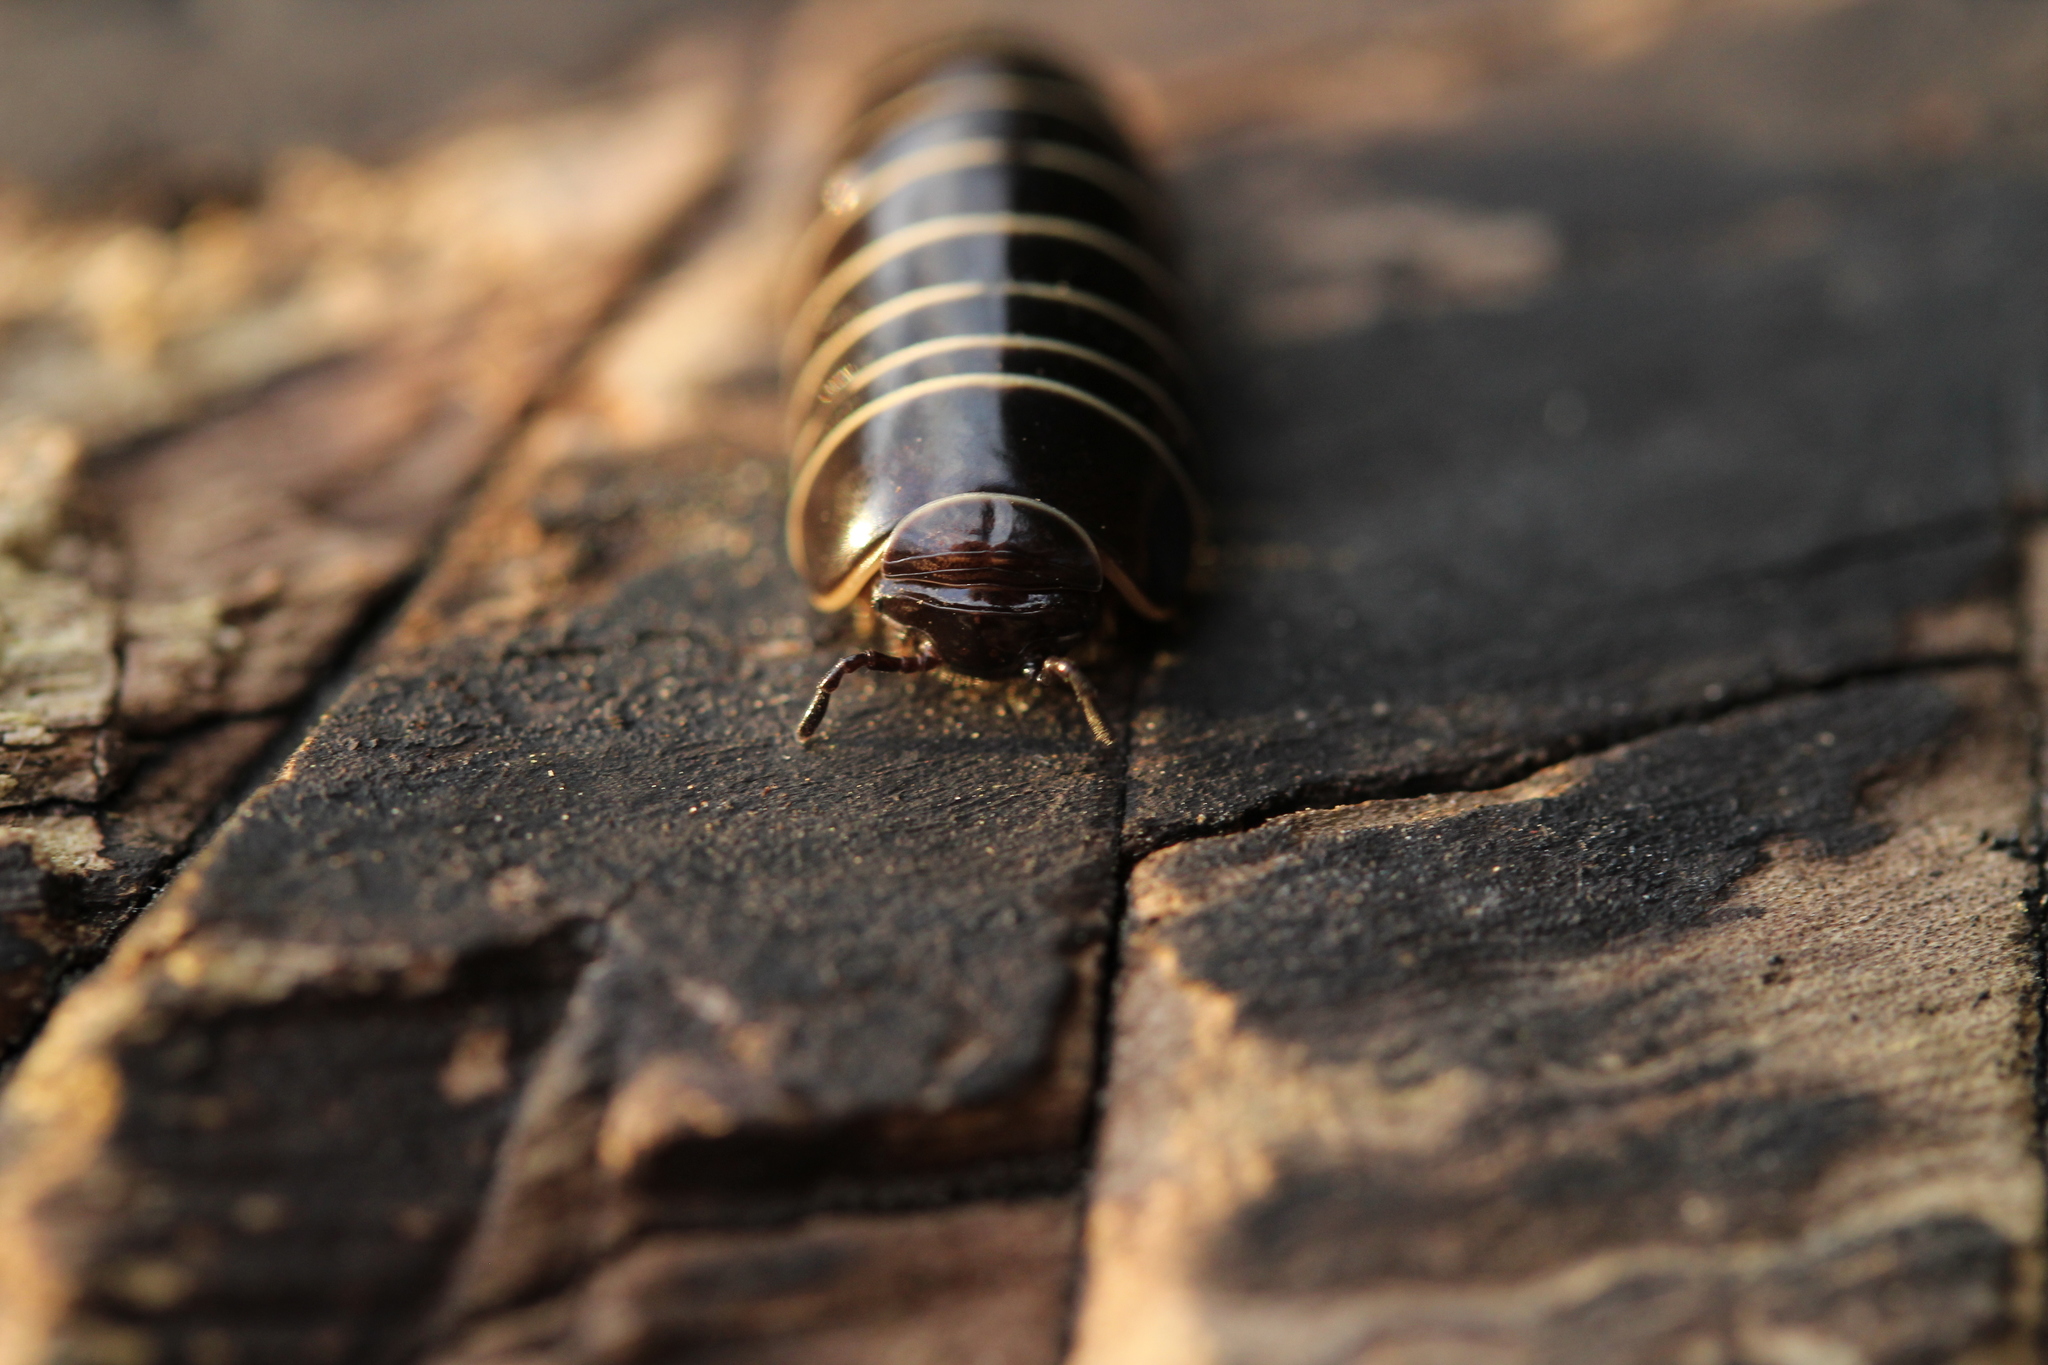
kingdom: Animalia
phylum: Arthropoda
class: Diplopoda
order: Glomerida
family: Glomeridae
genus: Glomeris
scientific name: Glomeris marginata
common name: Bordered pill millipede
